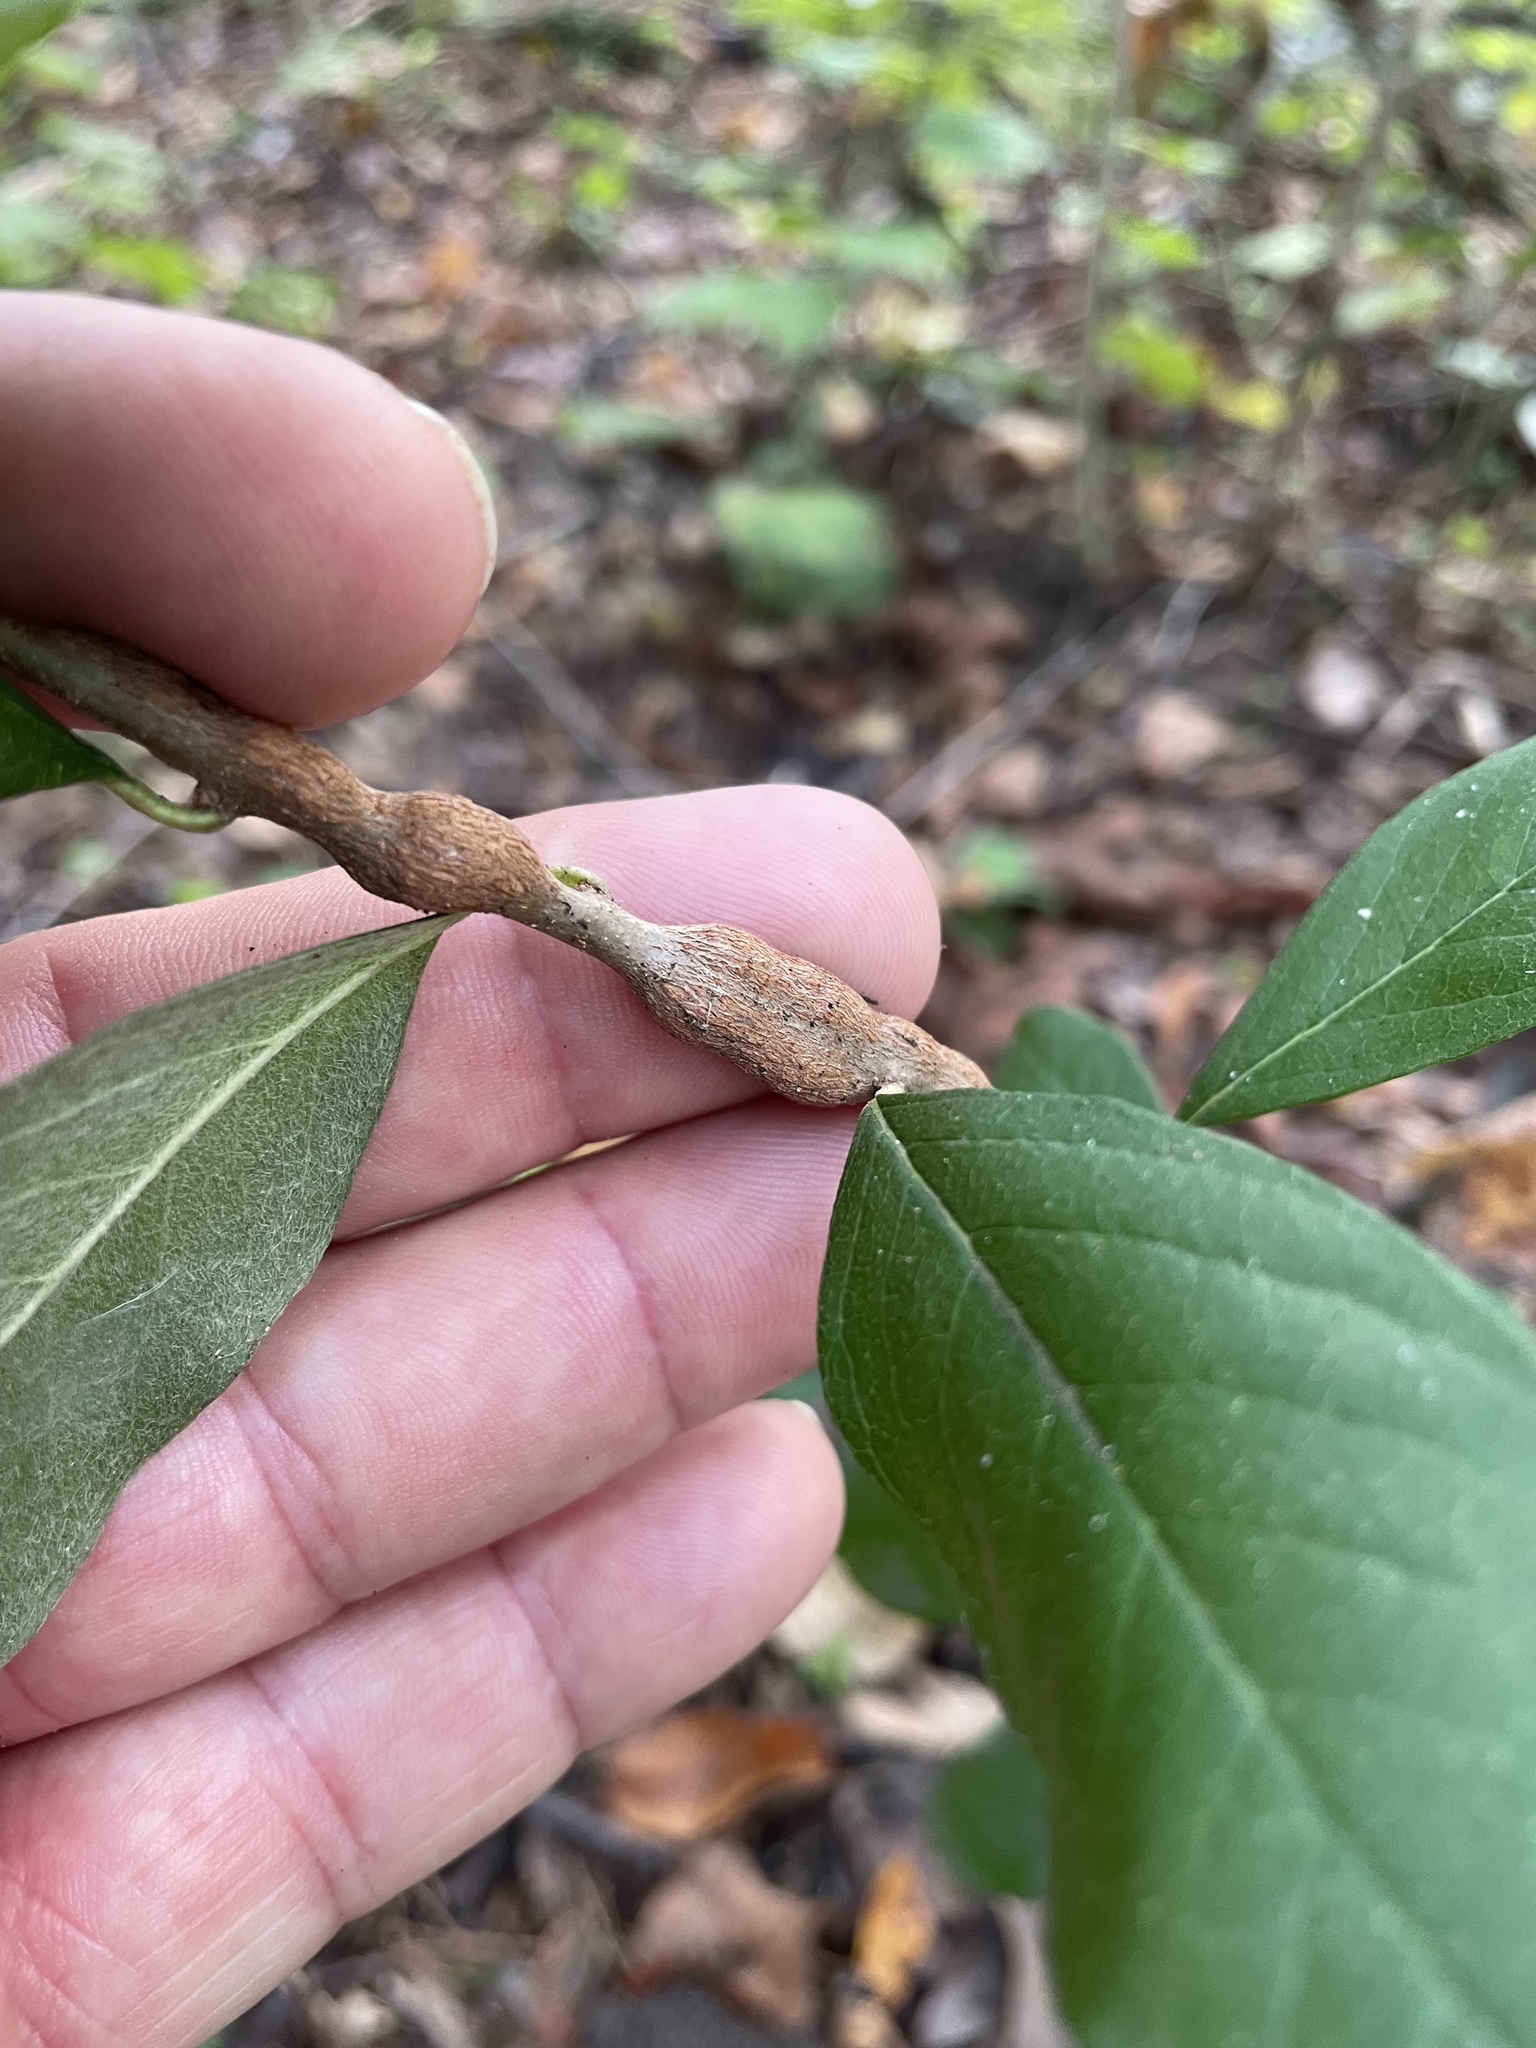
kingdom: Animalia
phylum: Arthropoda
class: Insecta
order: Diptera
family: Cecidomyiidae
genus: Bruggmanniella
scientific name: Bruggmanniella bumeliae
